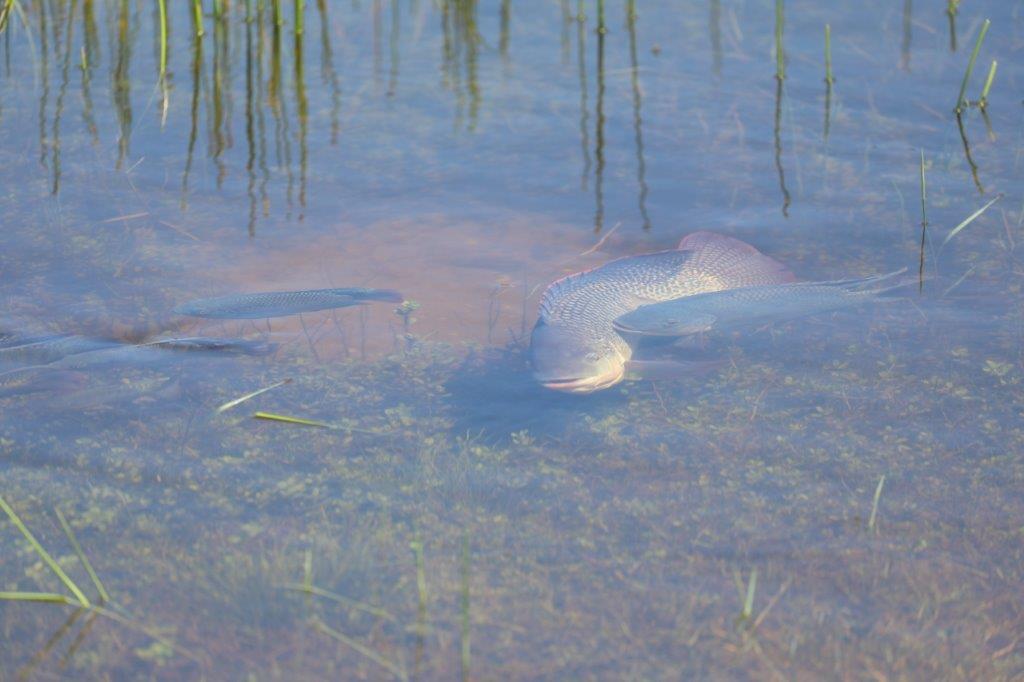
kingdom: Animalia
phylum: Chordata
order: Perciformes
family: Cichlidae
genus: Oreochromis
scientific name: Oreochromis mossambicus
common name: Mozambique tilapia
